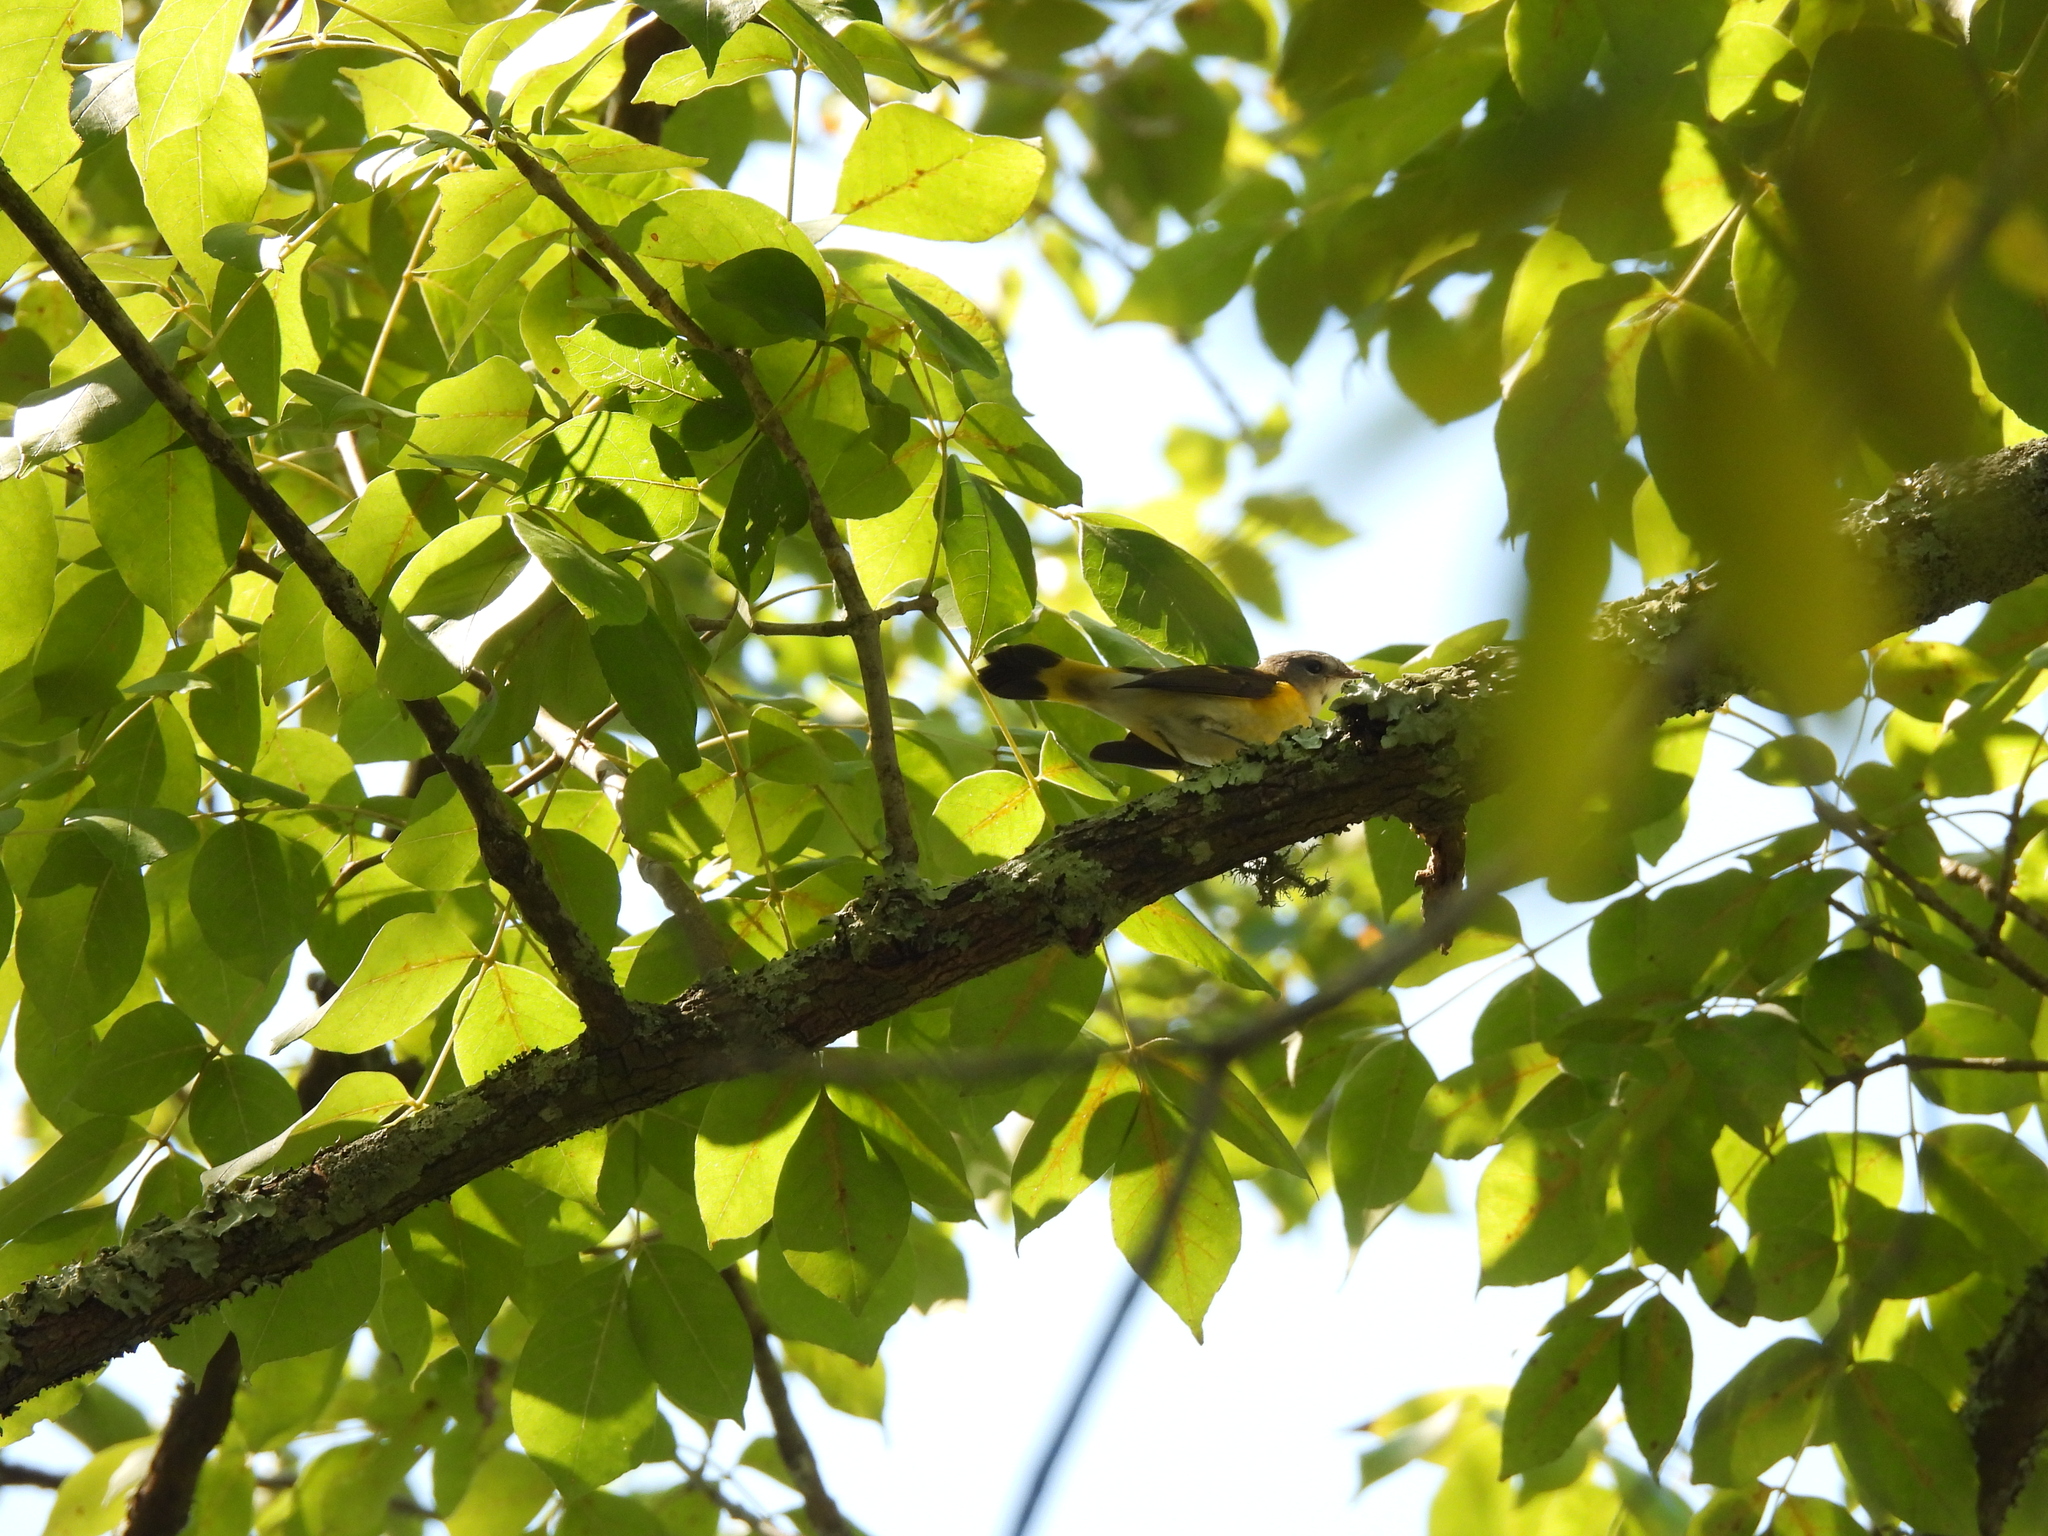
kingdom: Animalia
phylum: Chordata
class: Aves
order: Passeriformes
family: Parulidae
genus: Setophaga
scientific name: Setophaga ruticilla
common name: American redstart
